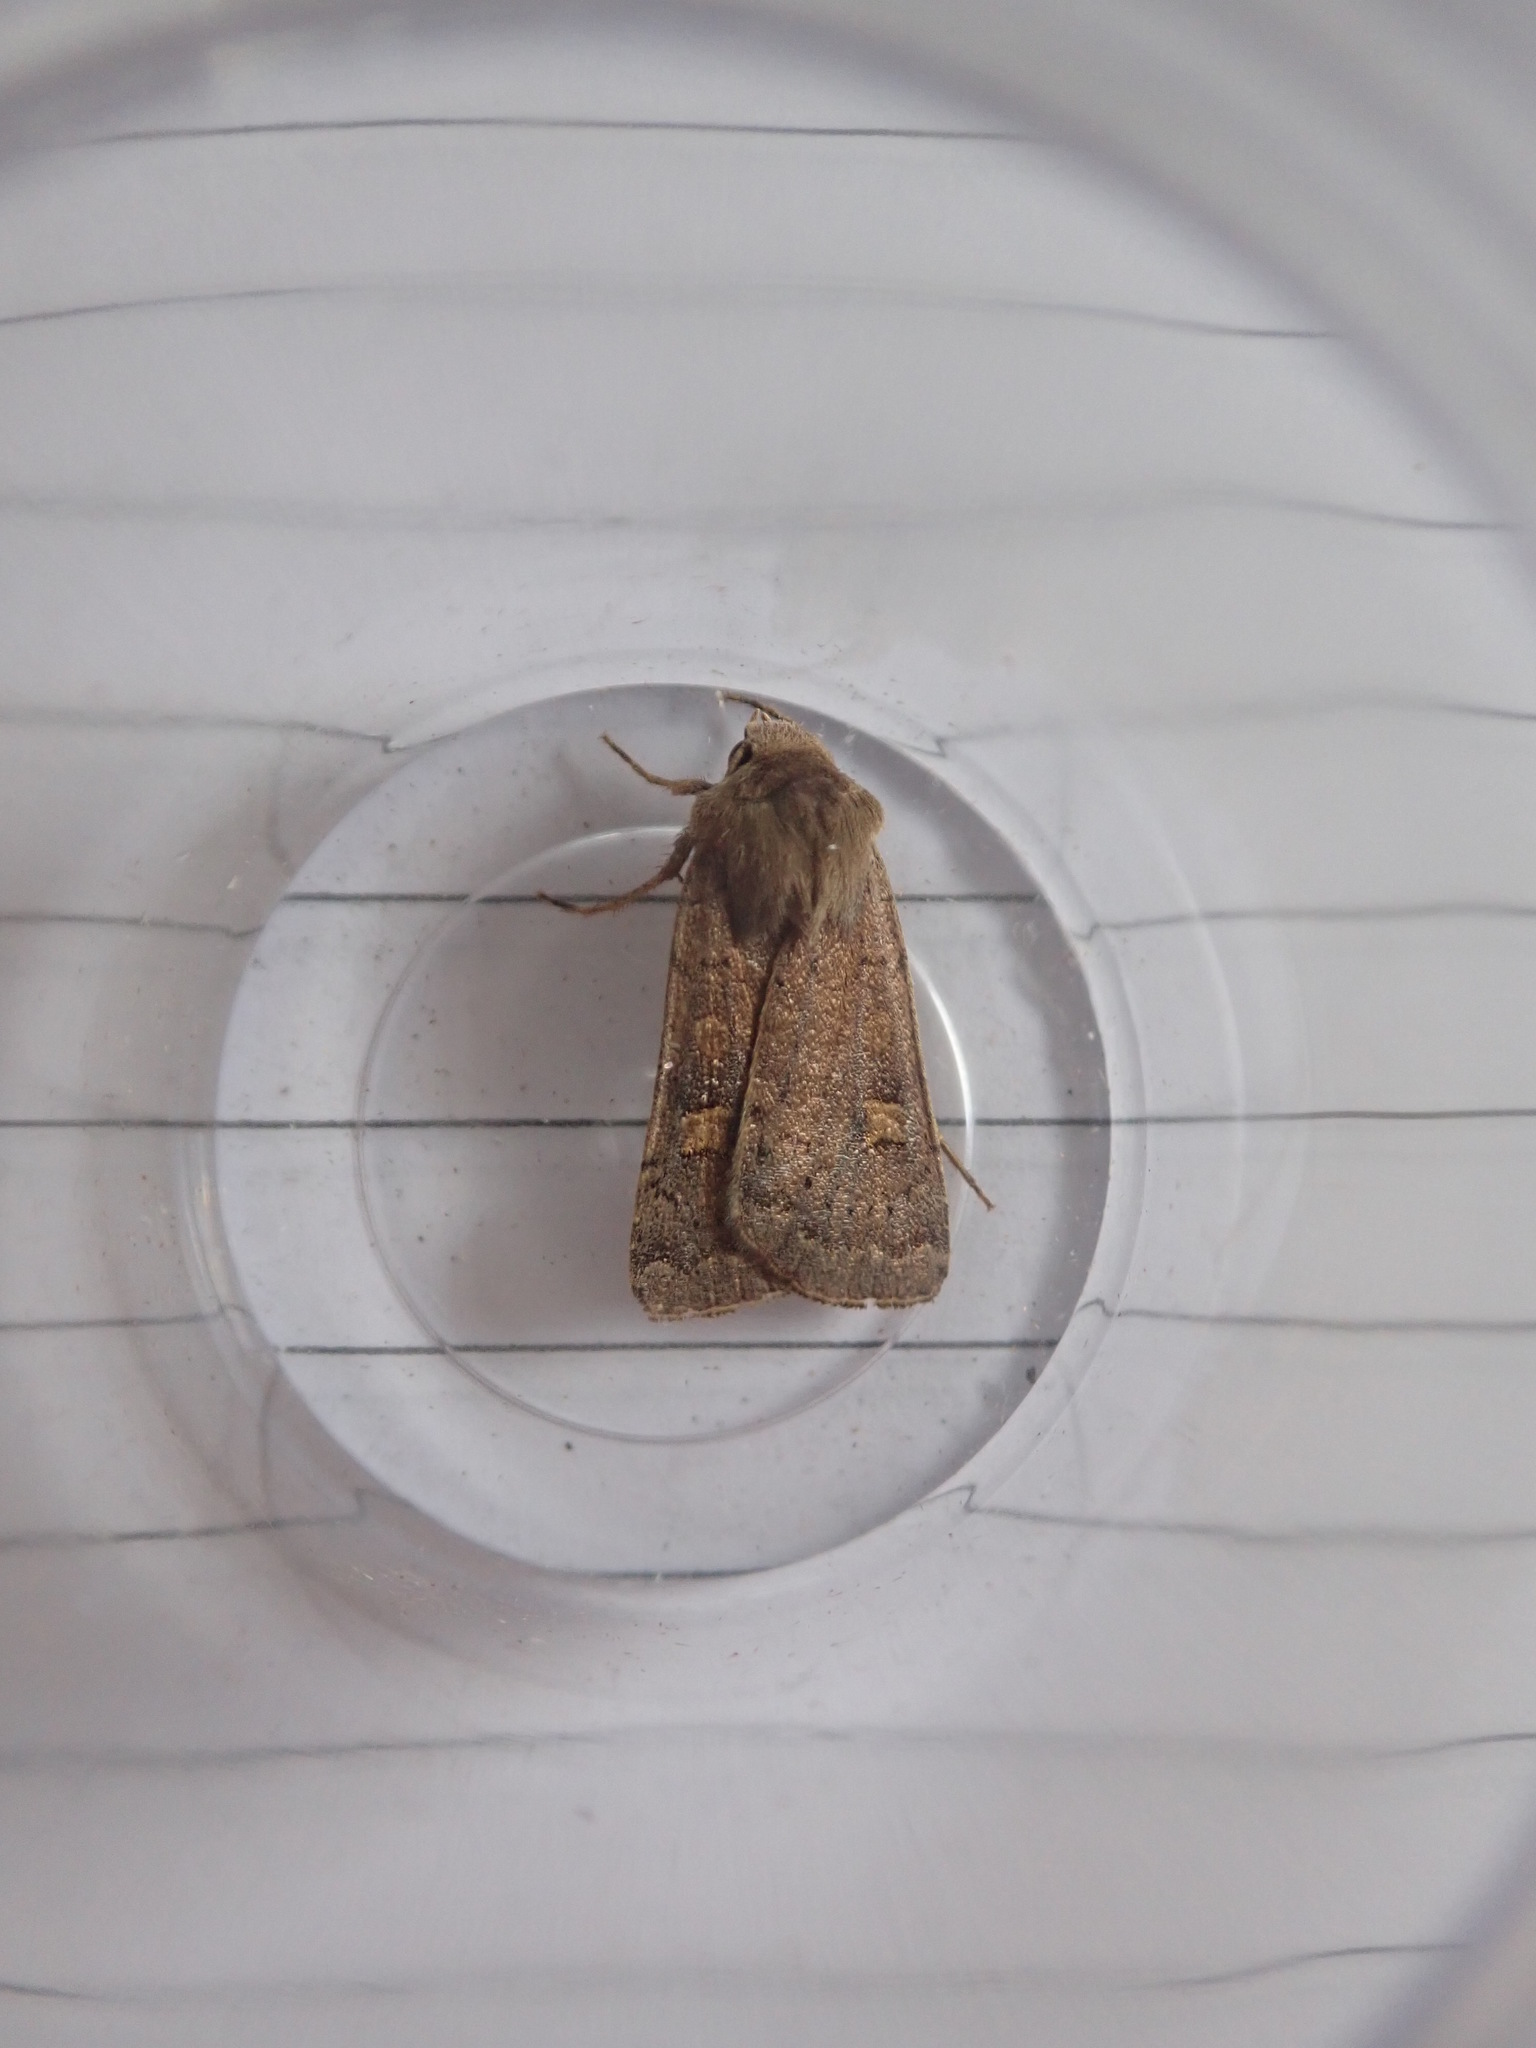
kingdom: Animalia
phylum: Arthropoda
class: Insecta
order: Lepidoptera
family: Noctuidae
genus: Xestia
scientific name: Xestia xanthographa
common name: Square-spot rustic
